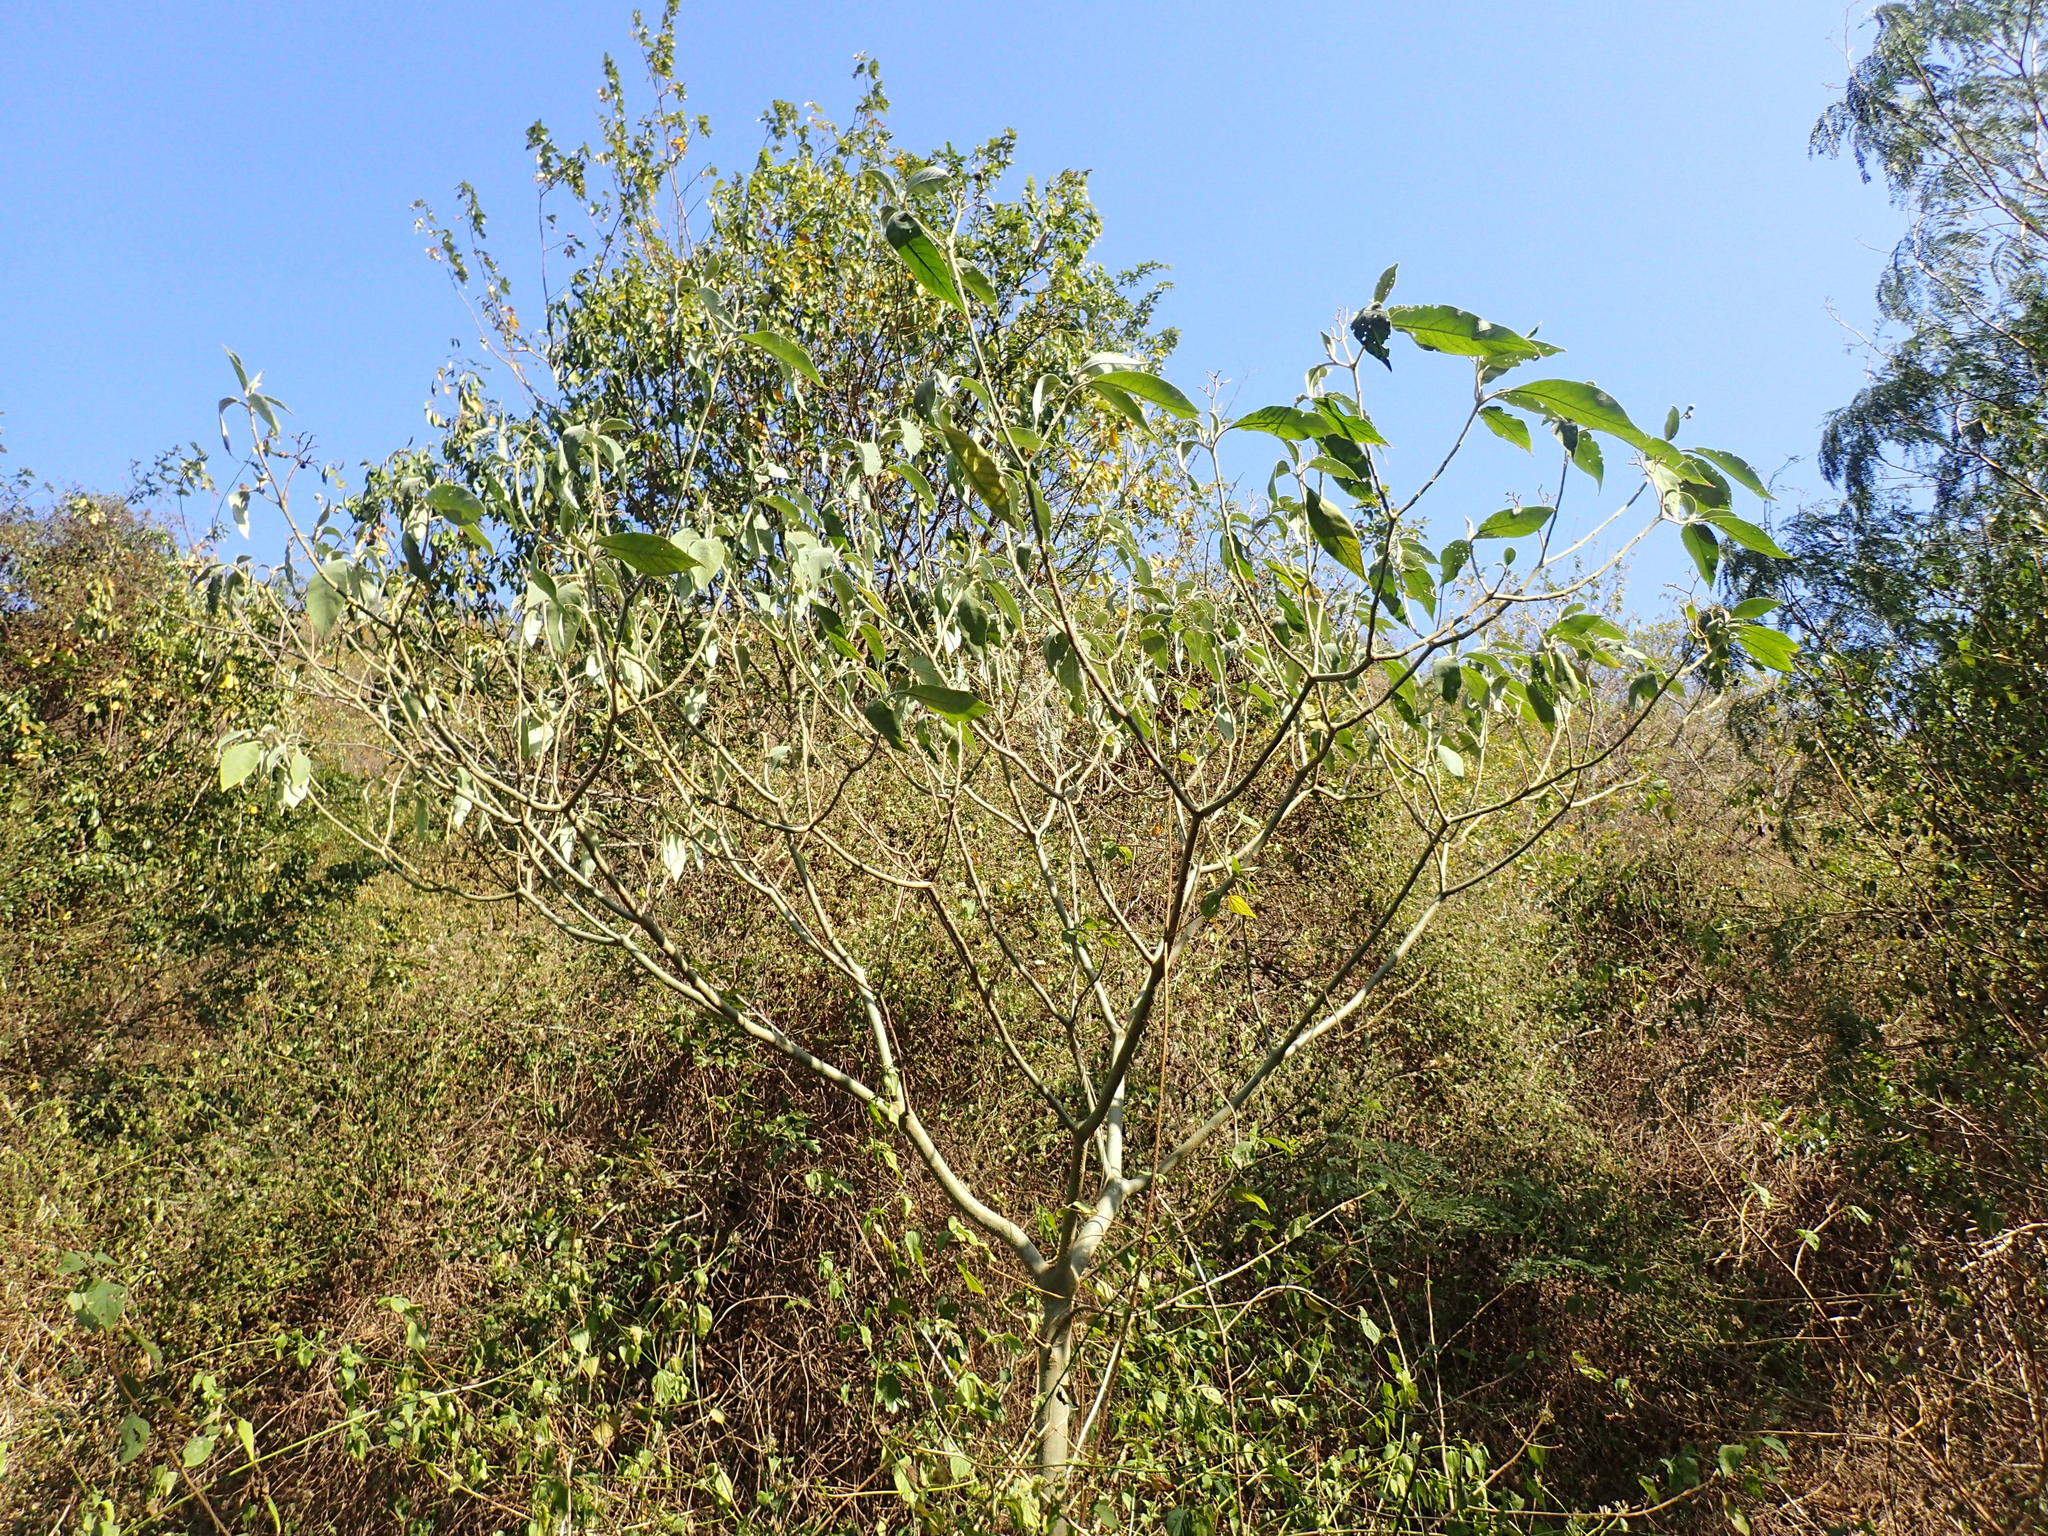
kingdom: Plantae
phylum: Tracheophyta
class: Magnoliopsida
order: Solanales
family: Solanaceae
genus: Solanum
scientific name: Solanum mauritianum
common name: Earleaf nightshade
